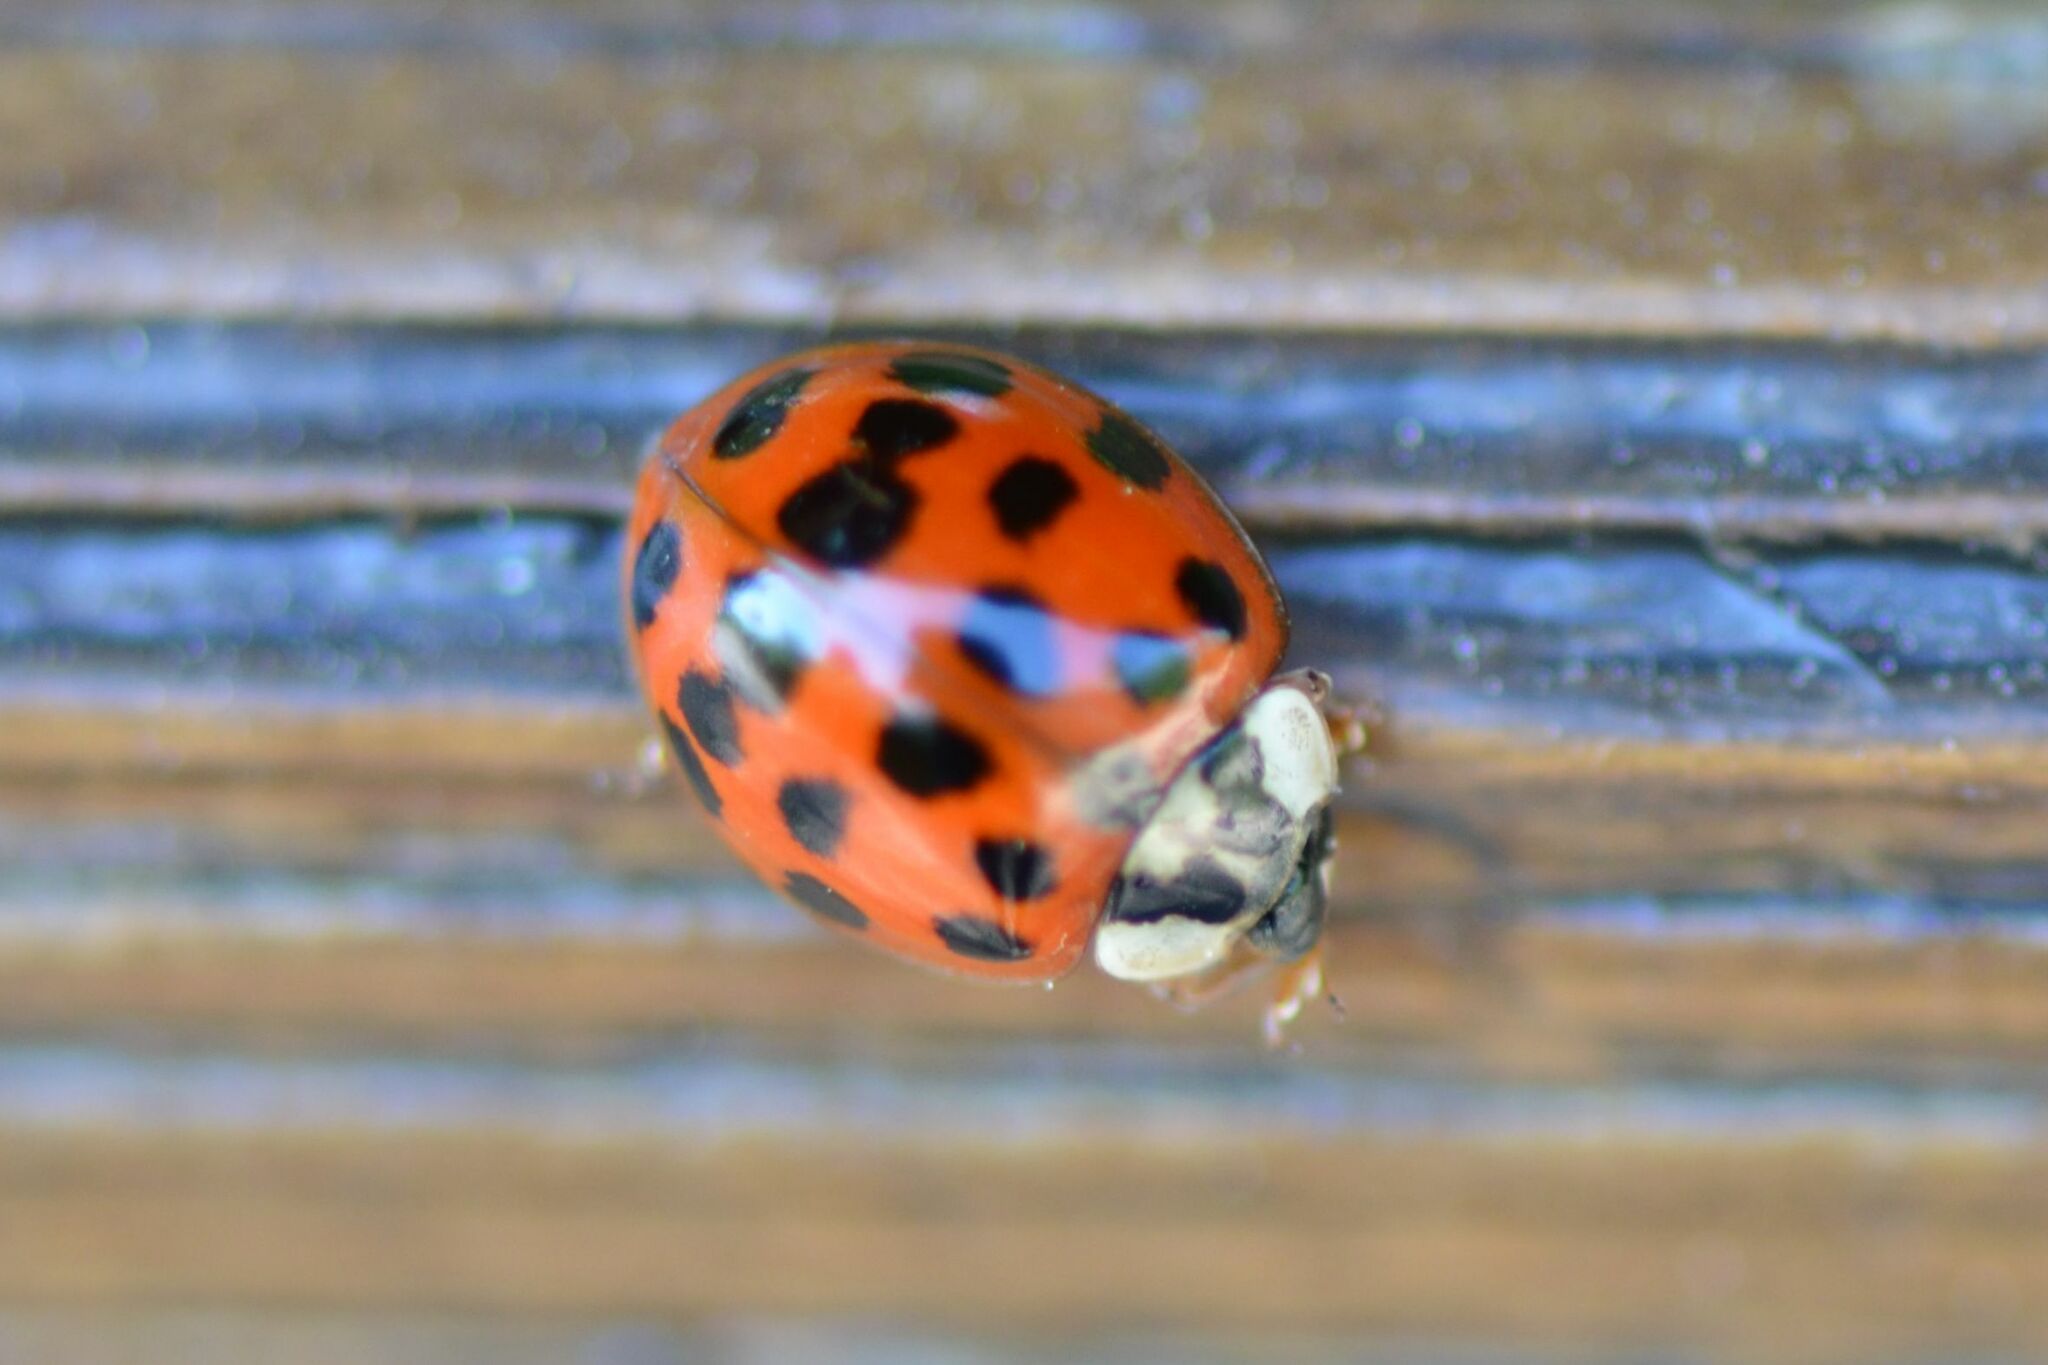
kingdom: Animalia
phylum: Arthropoda
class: Insecta
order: Coleoptera
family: Coccinellidae
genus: Harmonia
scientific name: Harmonia axyridis
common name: Harlequin ladybird
